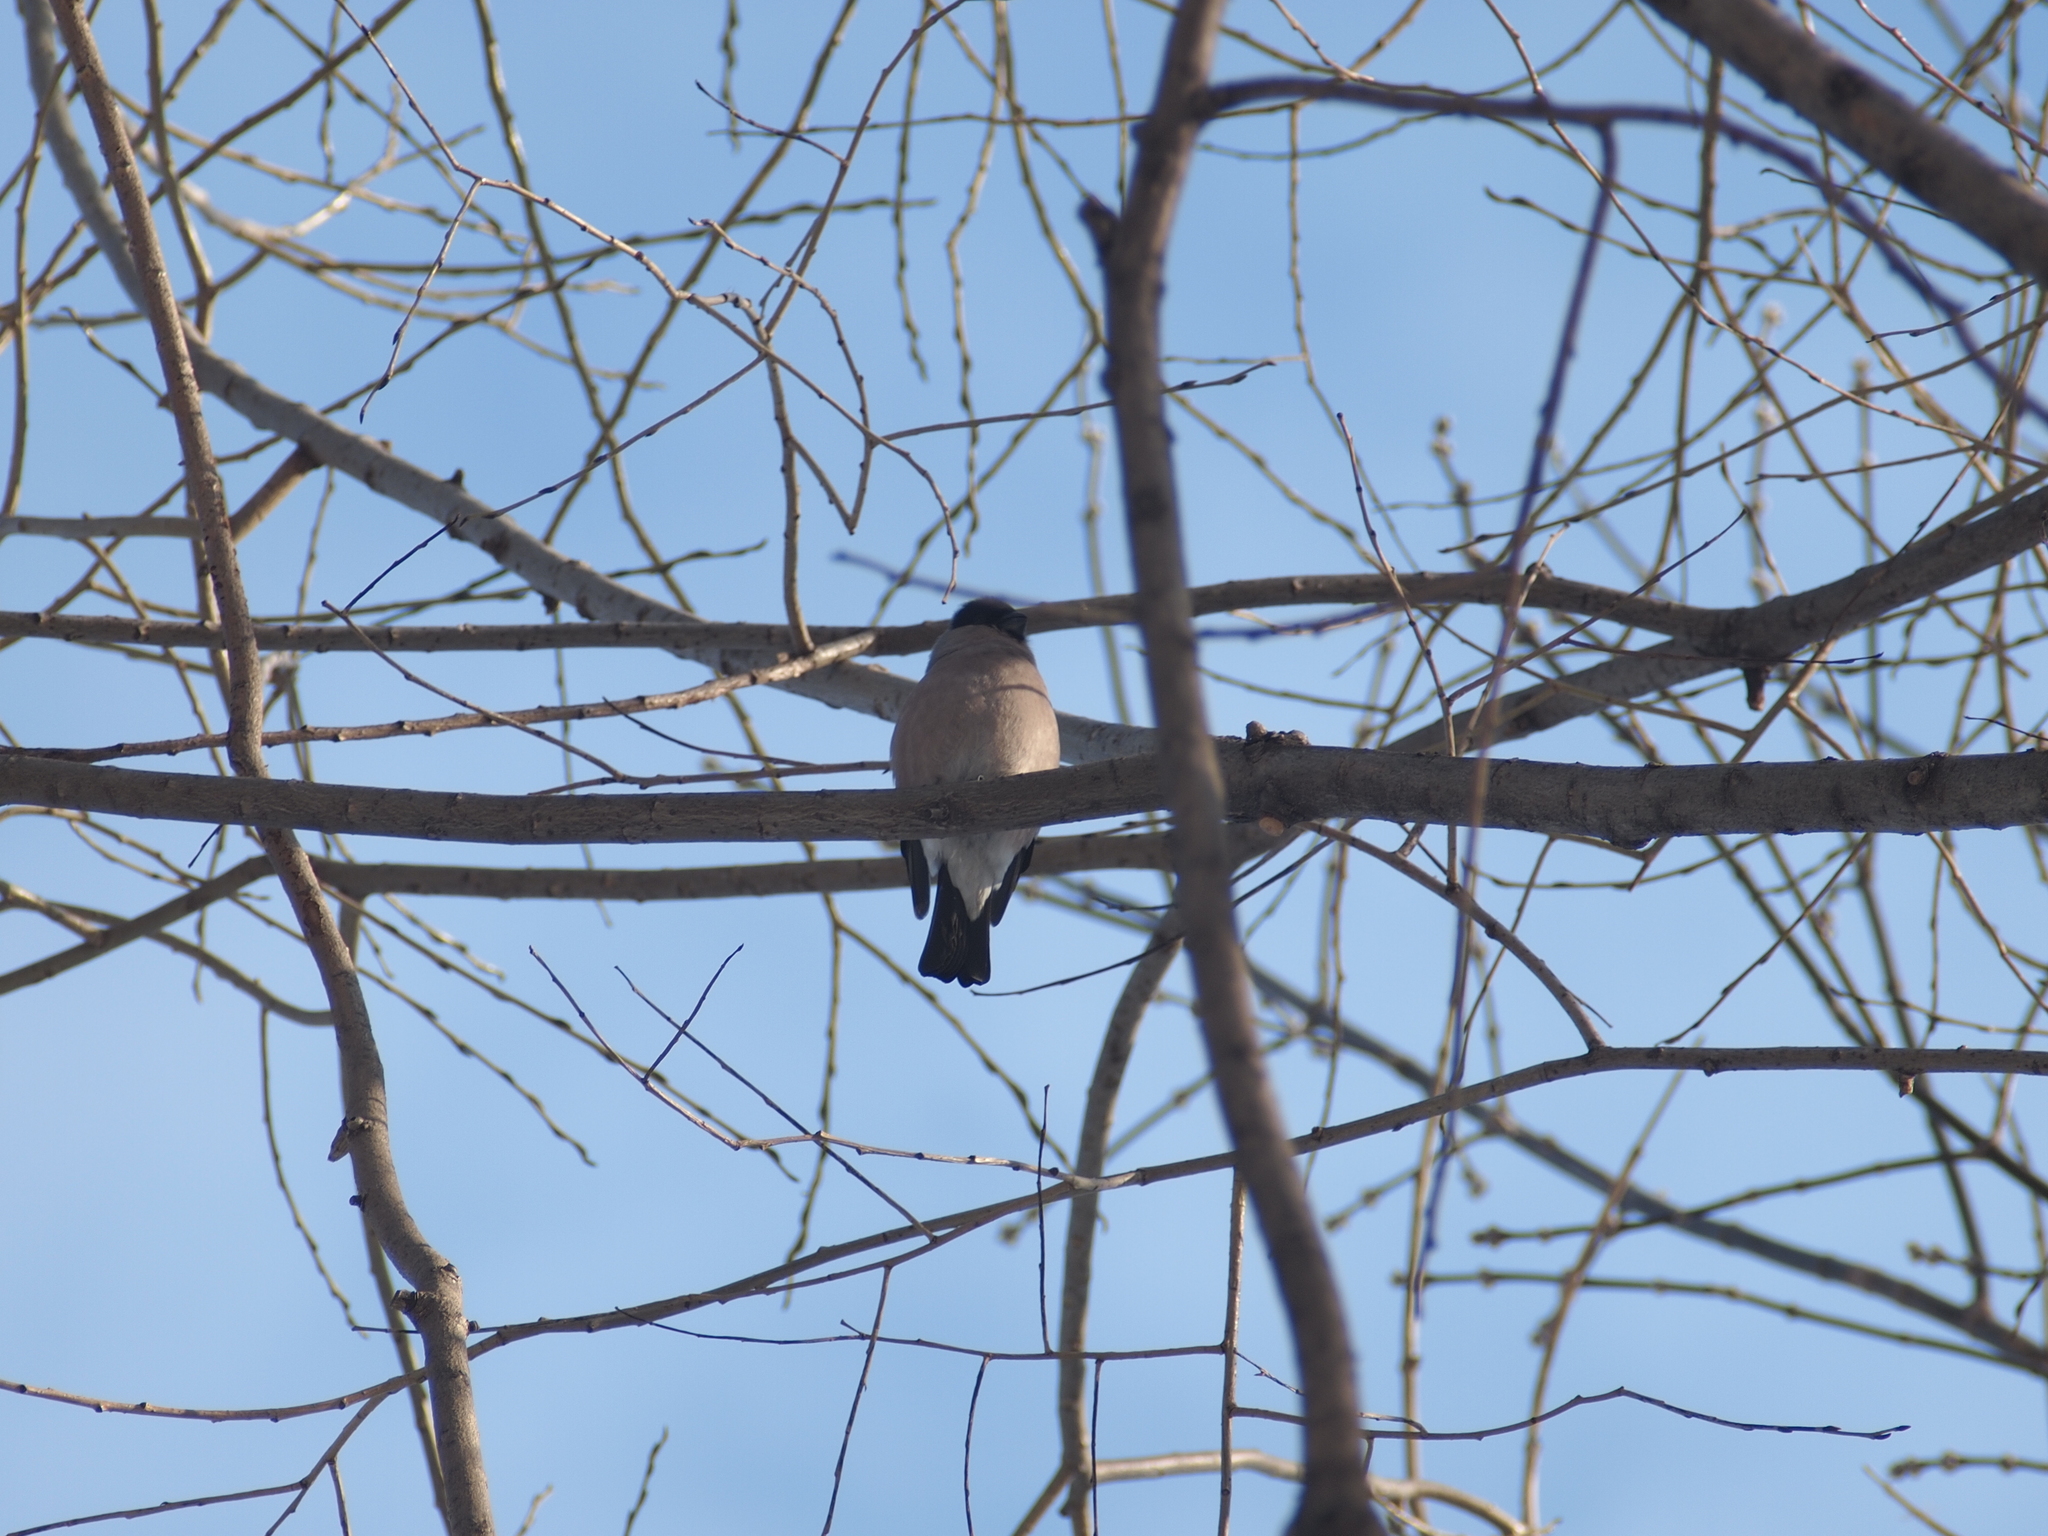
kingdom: Animalia
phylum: Chordata
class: Aves
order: Passeriformes
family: Fringillidae
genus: Pyrrhula
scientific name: Pyrrhula pyrrhula
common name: Eurasian bullfinch
